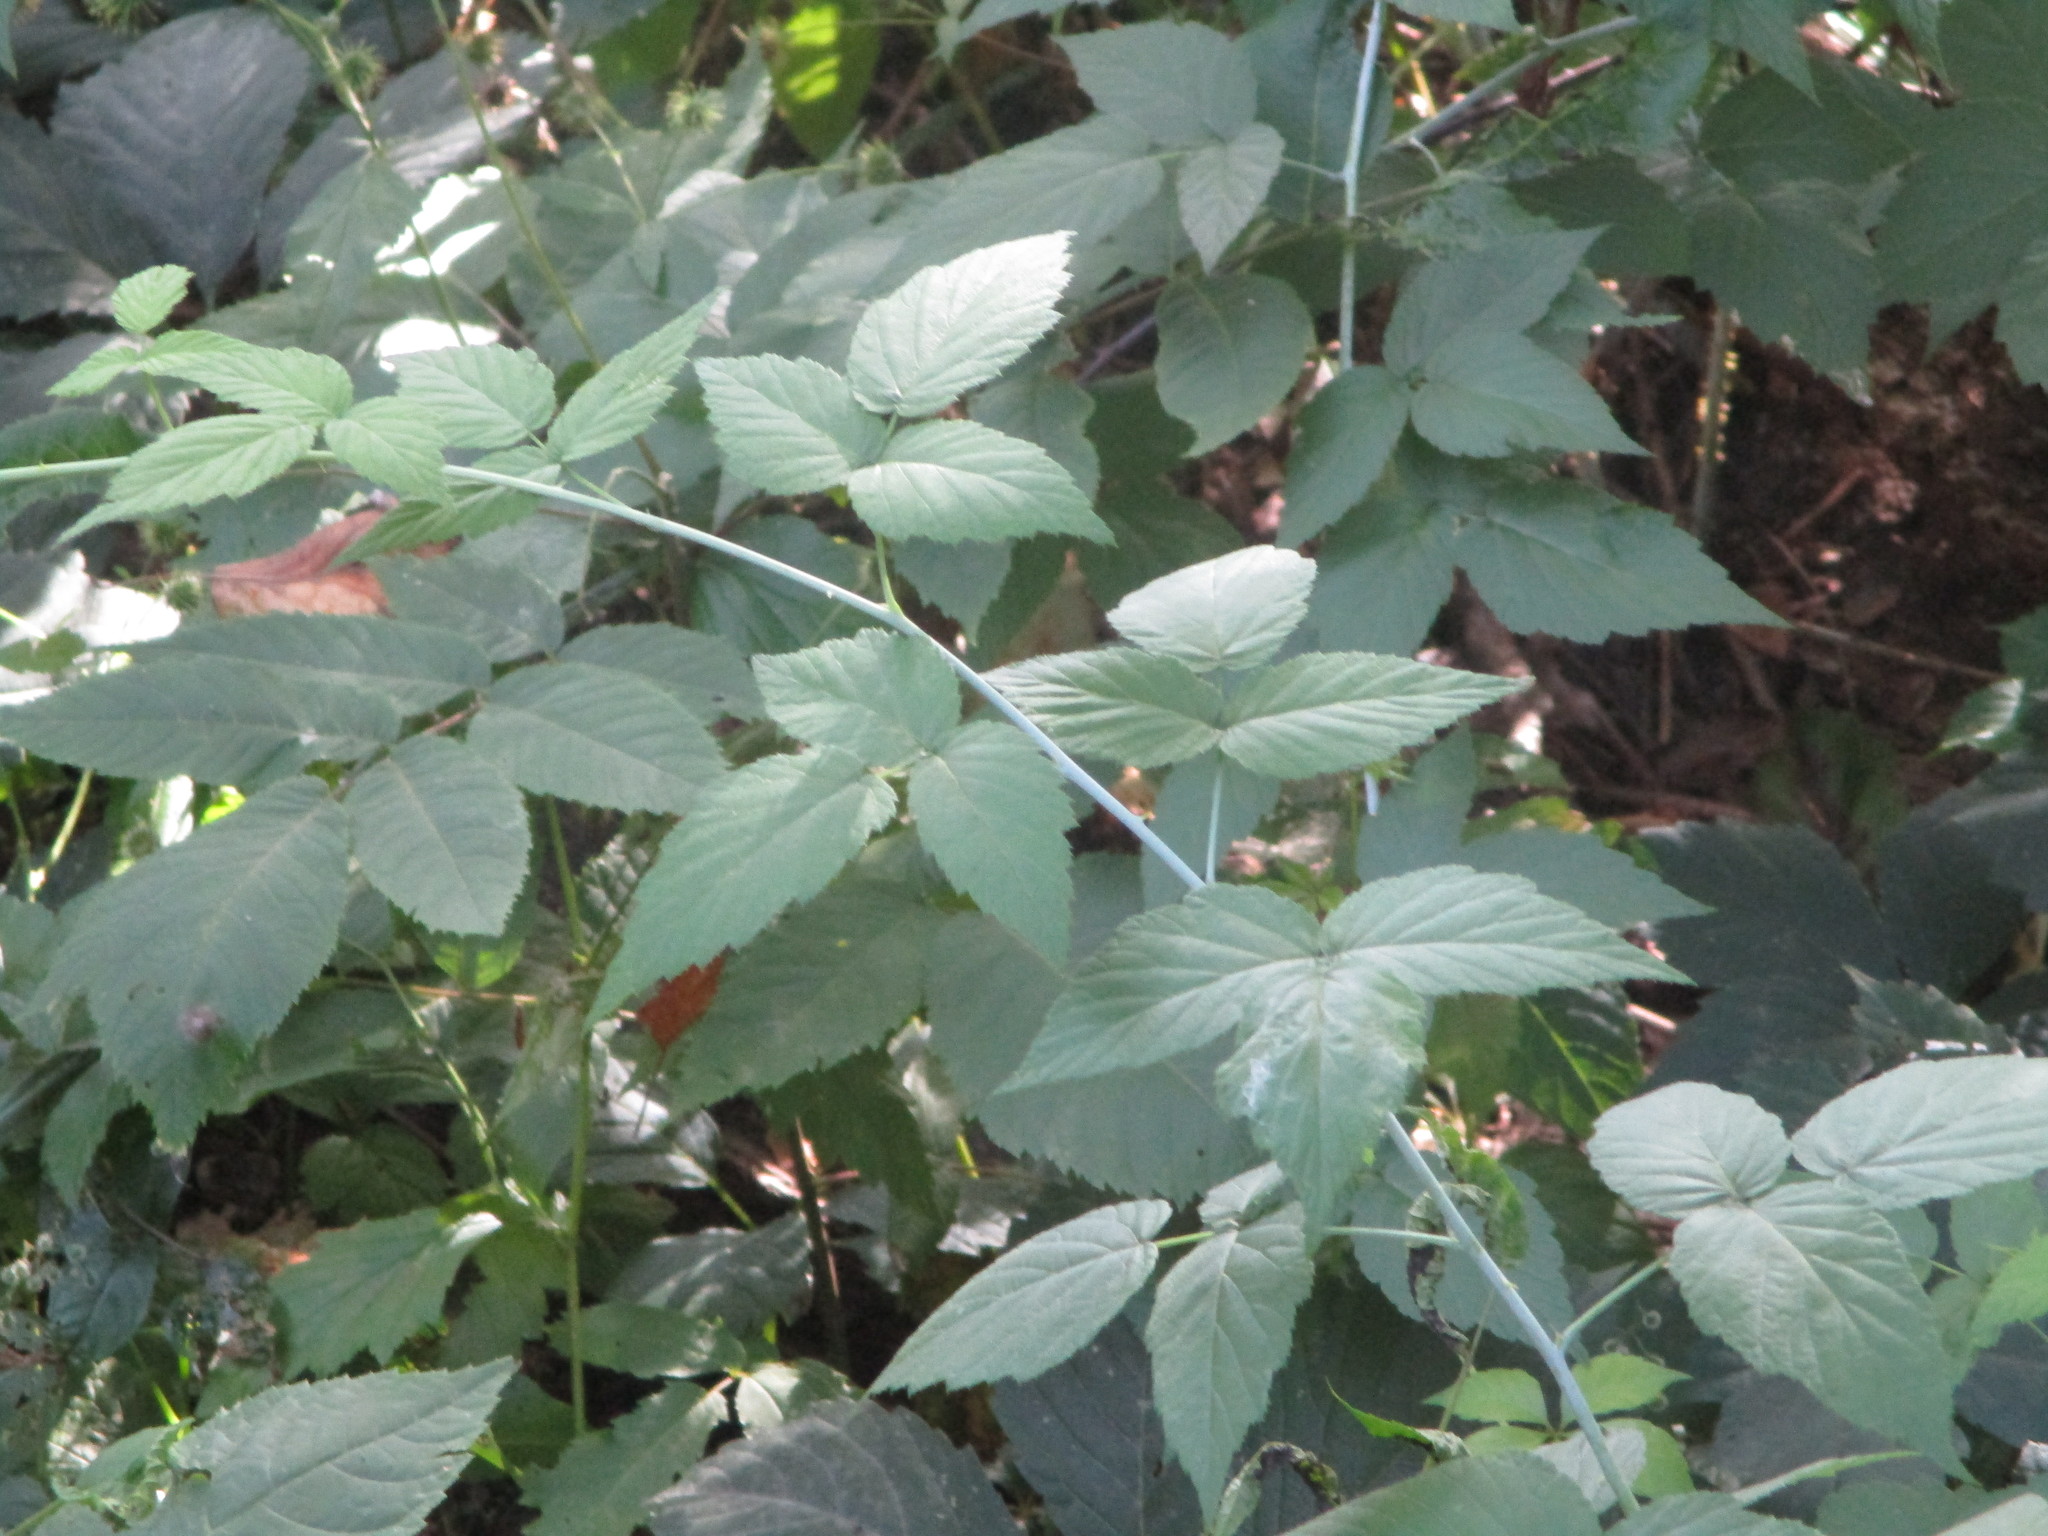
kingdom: Plantae
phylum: Tracheophyta
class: Magnoliopsida
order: Rosales
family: Rosaceae
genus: Rubus
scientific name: Rubus occidentalis
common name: Black raspberry
